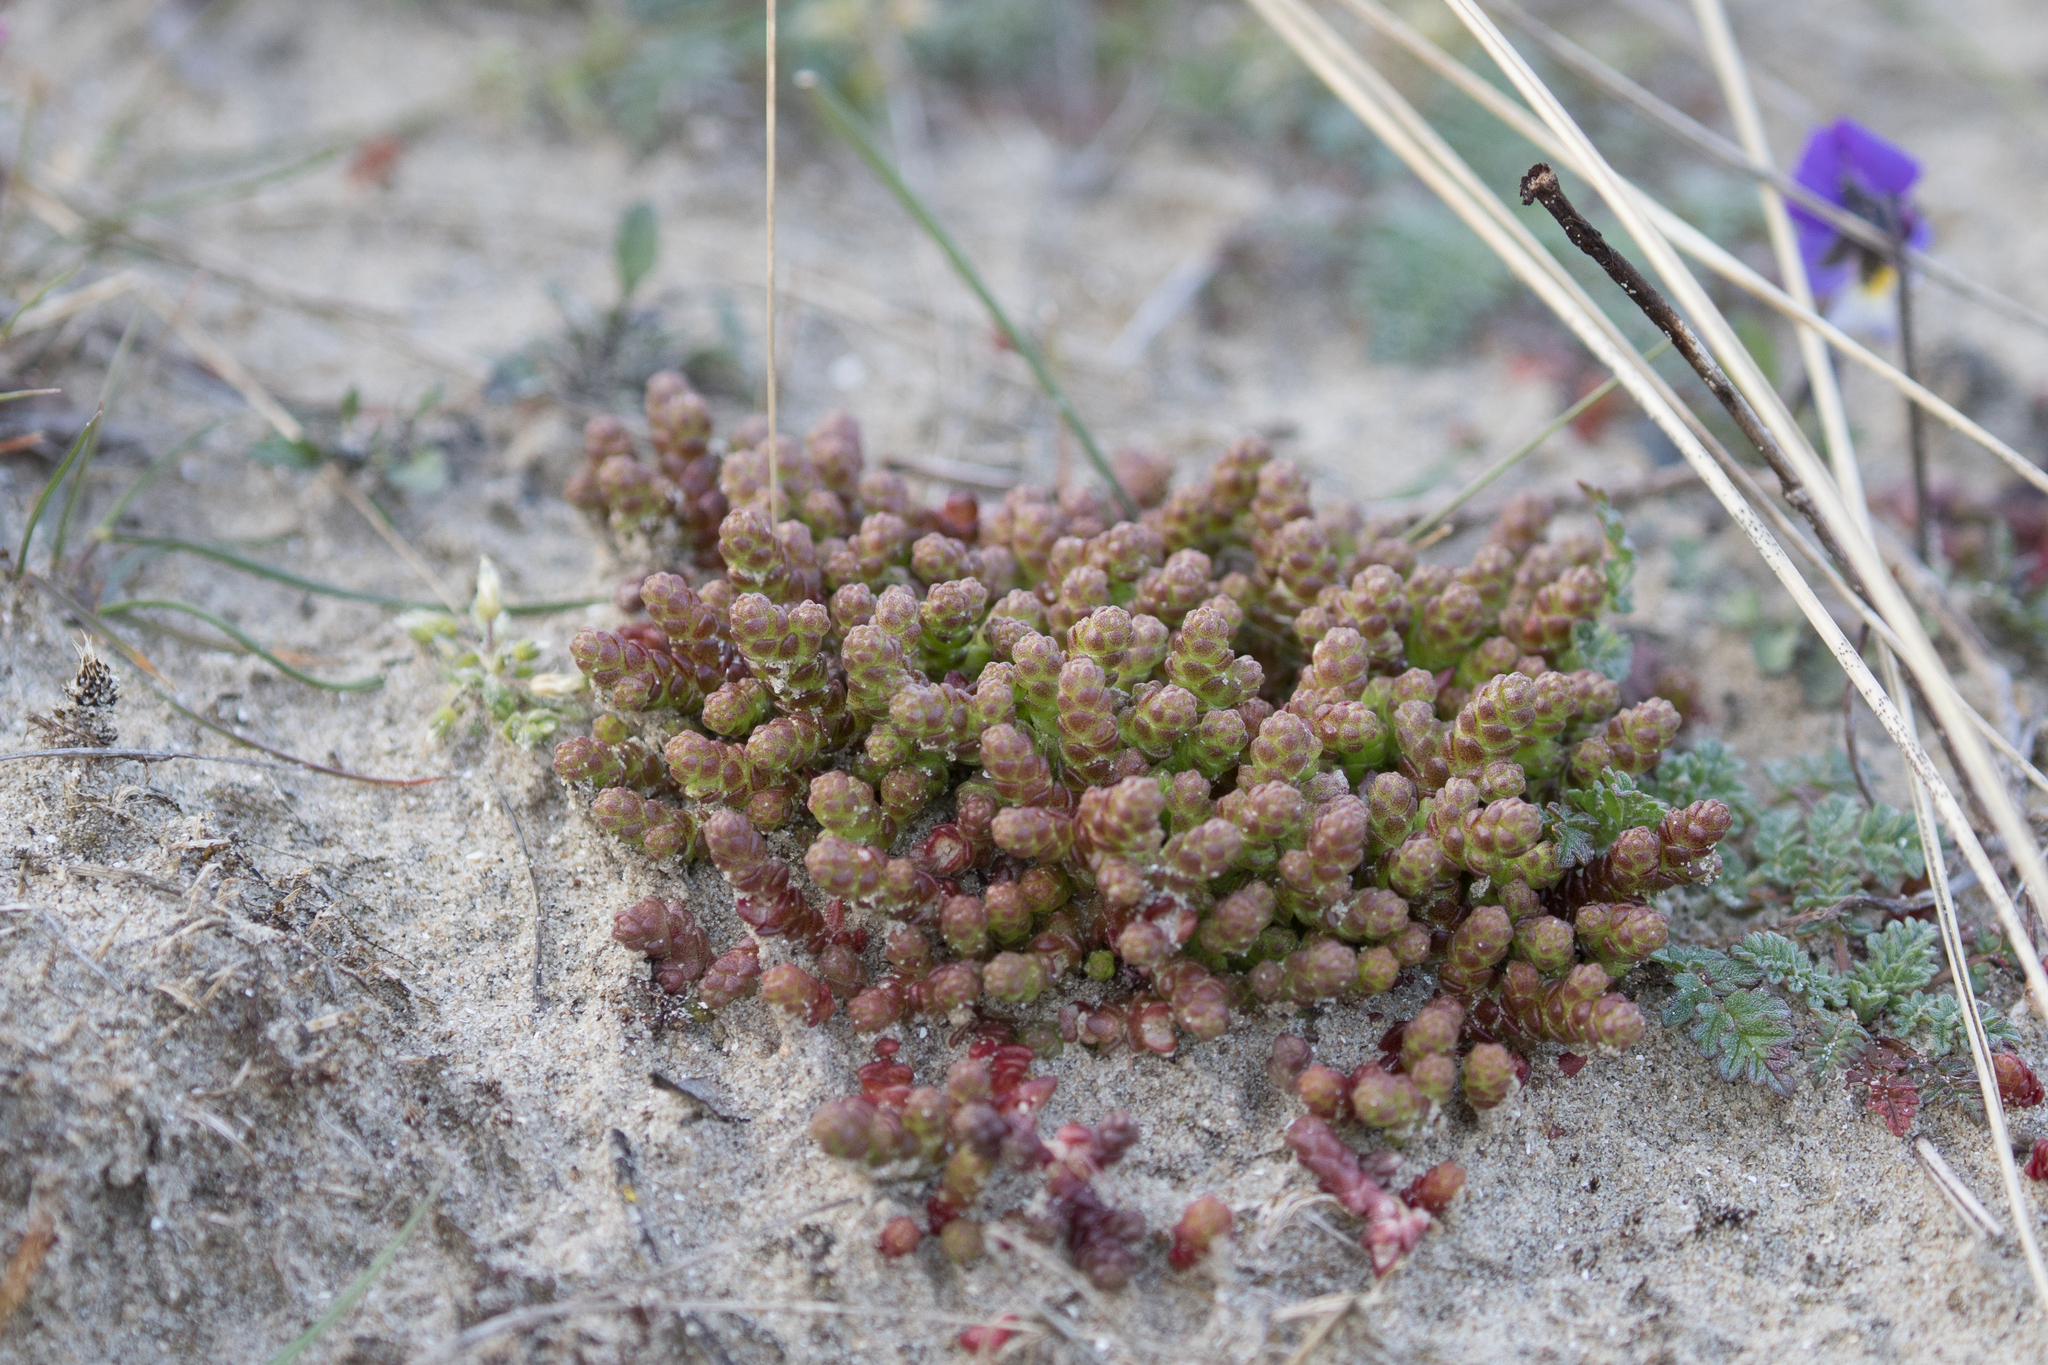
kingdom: Plantae
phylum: Tracheophyta
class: Magnoliopsida
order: Saxifragales
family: Crassulaceae
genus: Sedum
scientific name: Sedum acre
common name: Biting stonecrop
